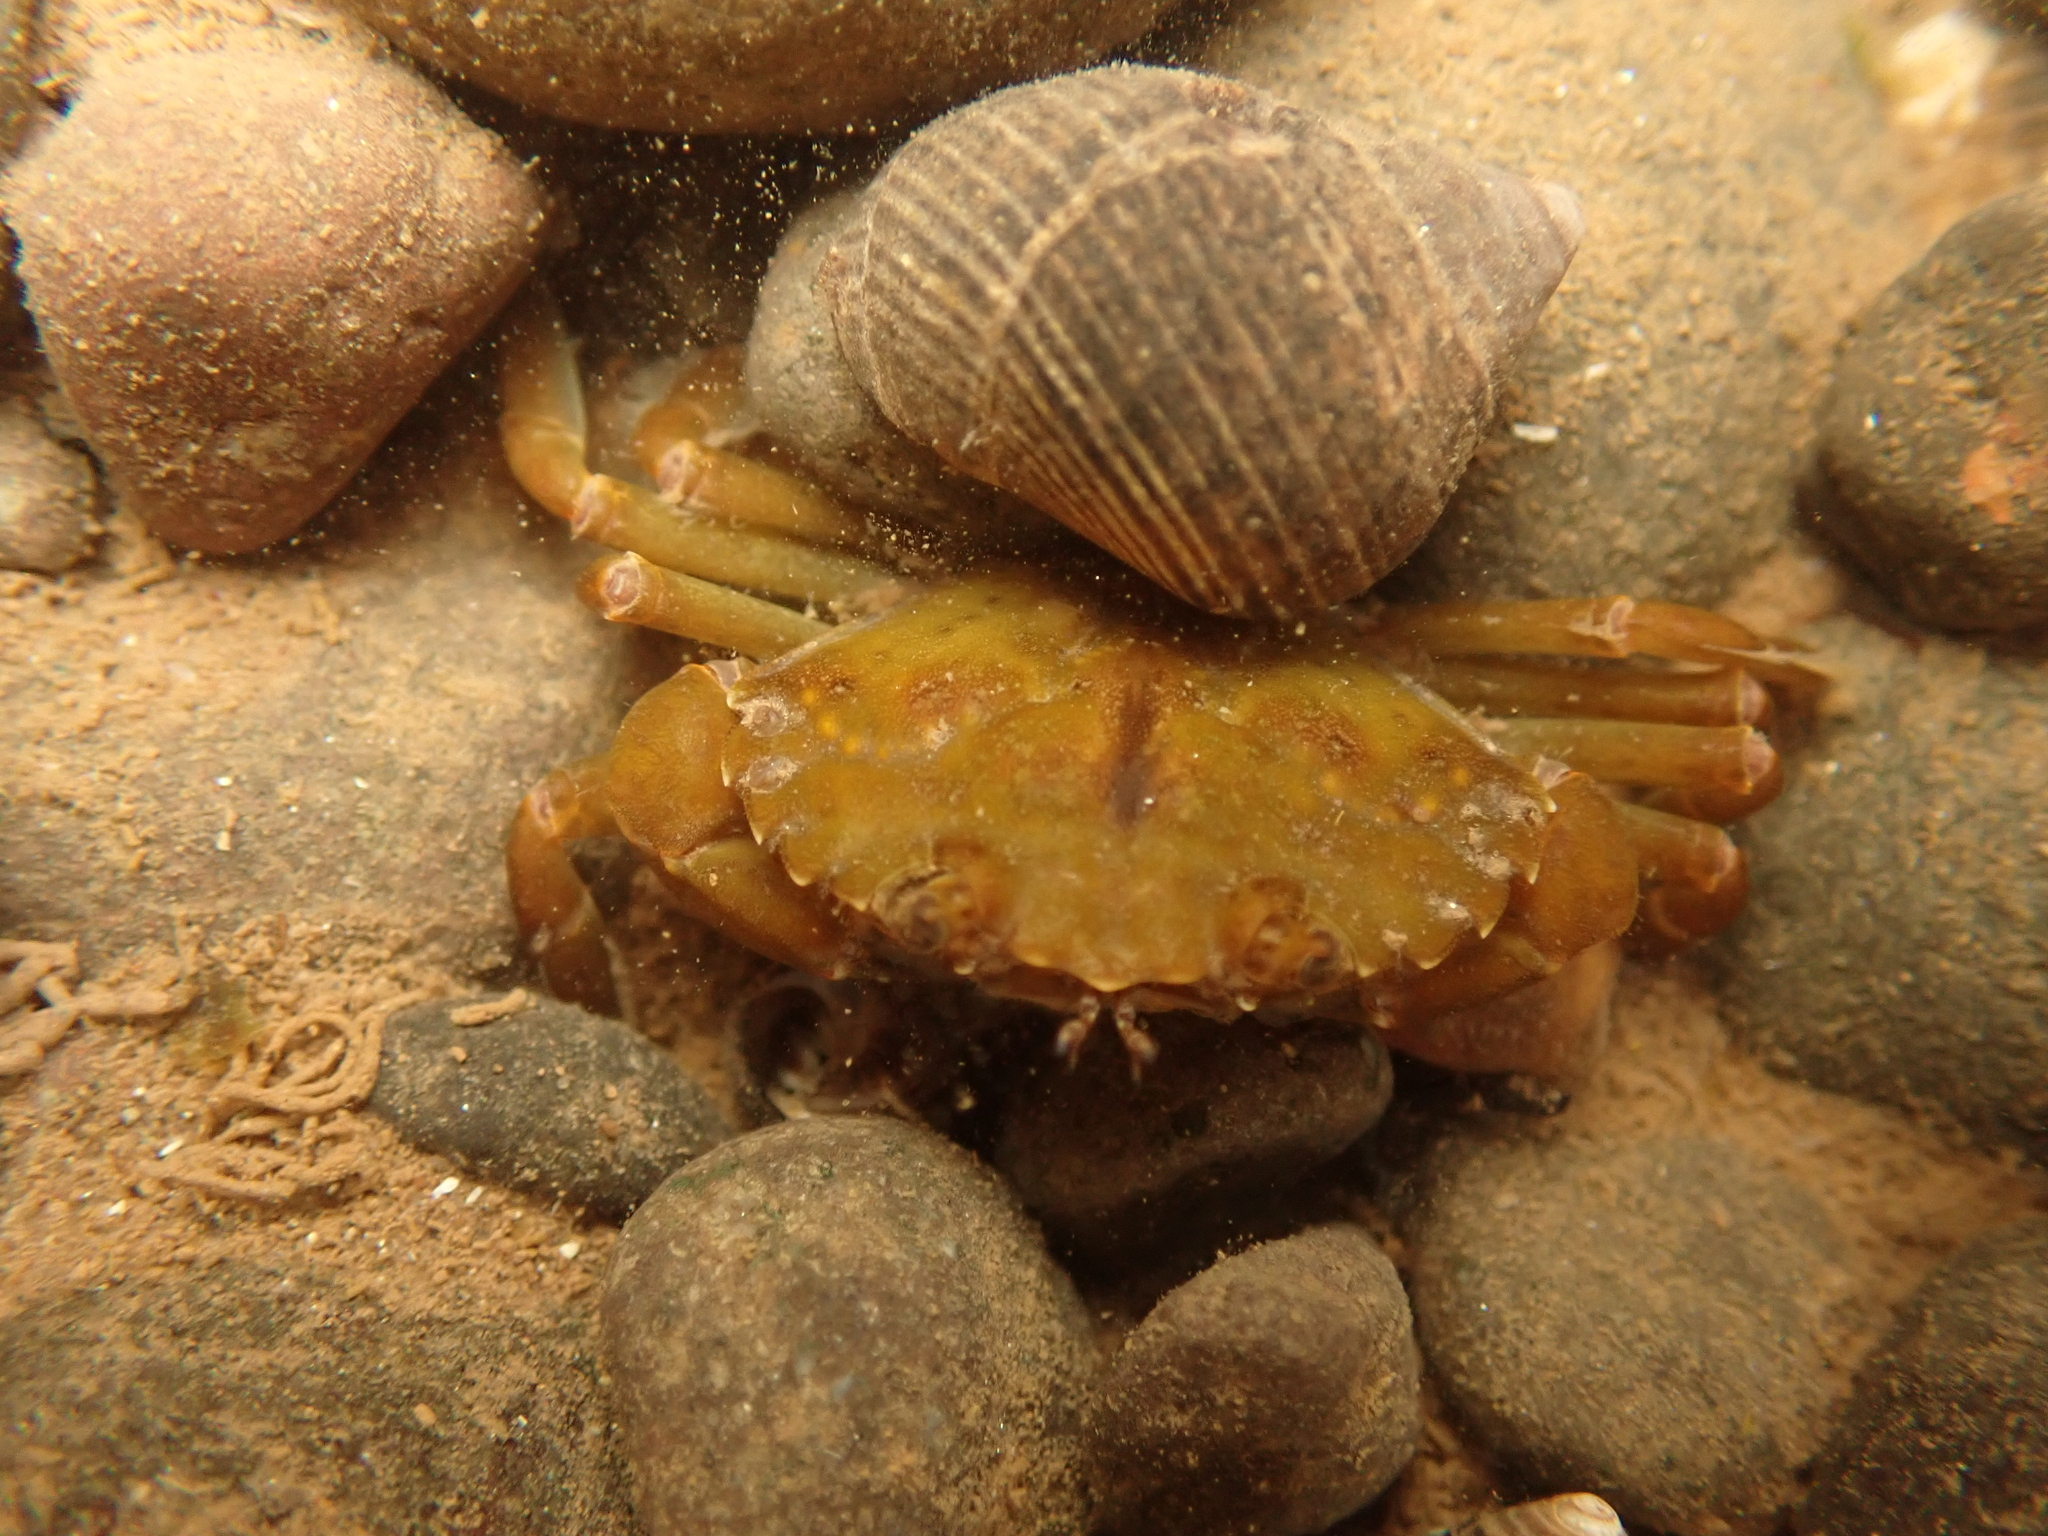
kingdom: Animalia
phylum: Arthropoda
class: Malacostraca
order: Decapoda
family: Carcinidae
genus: Carcinus
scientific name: Carcinus maenas
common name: European green crab
